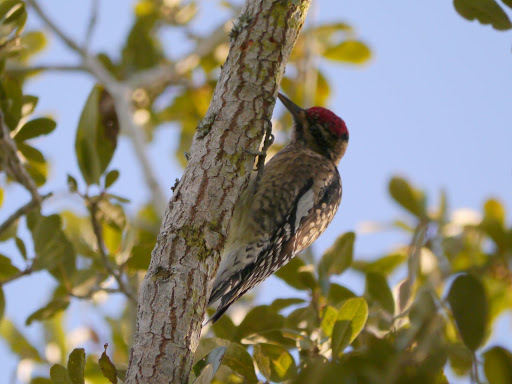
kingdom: Animalia
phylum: Chordata
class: Aves
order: Piciformes
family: Picidae
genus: Sphyrapicus
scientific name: Sphyrapicus varius
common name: Yellow-bellied sapsucker
